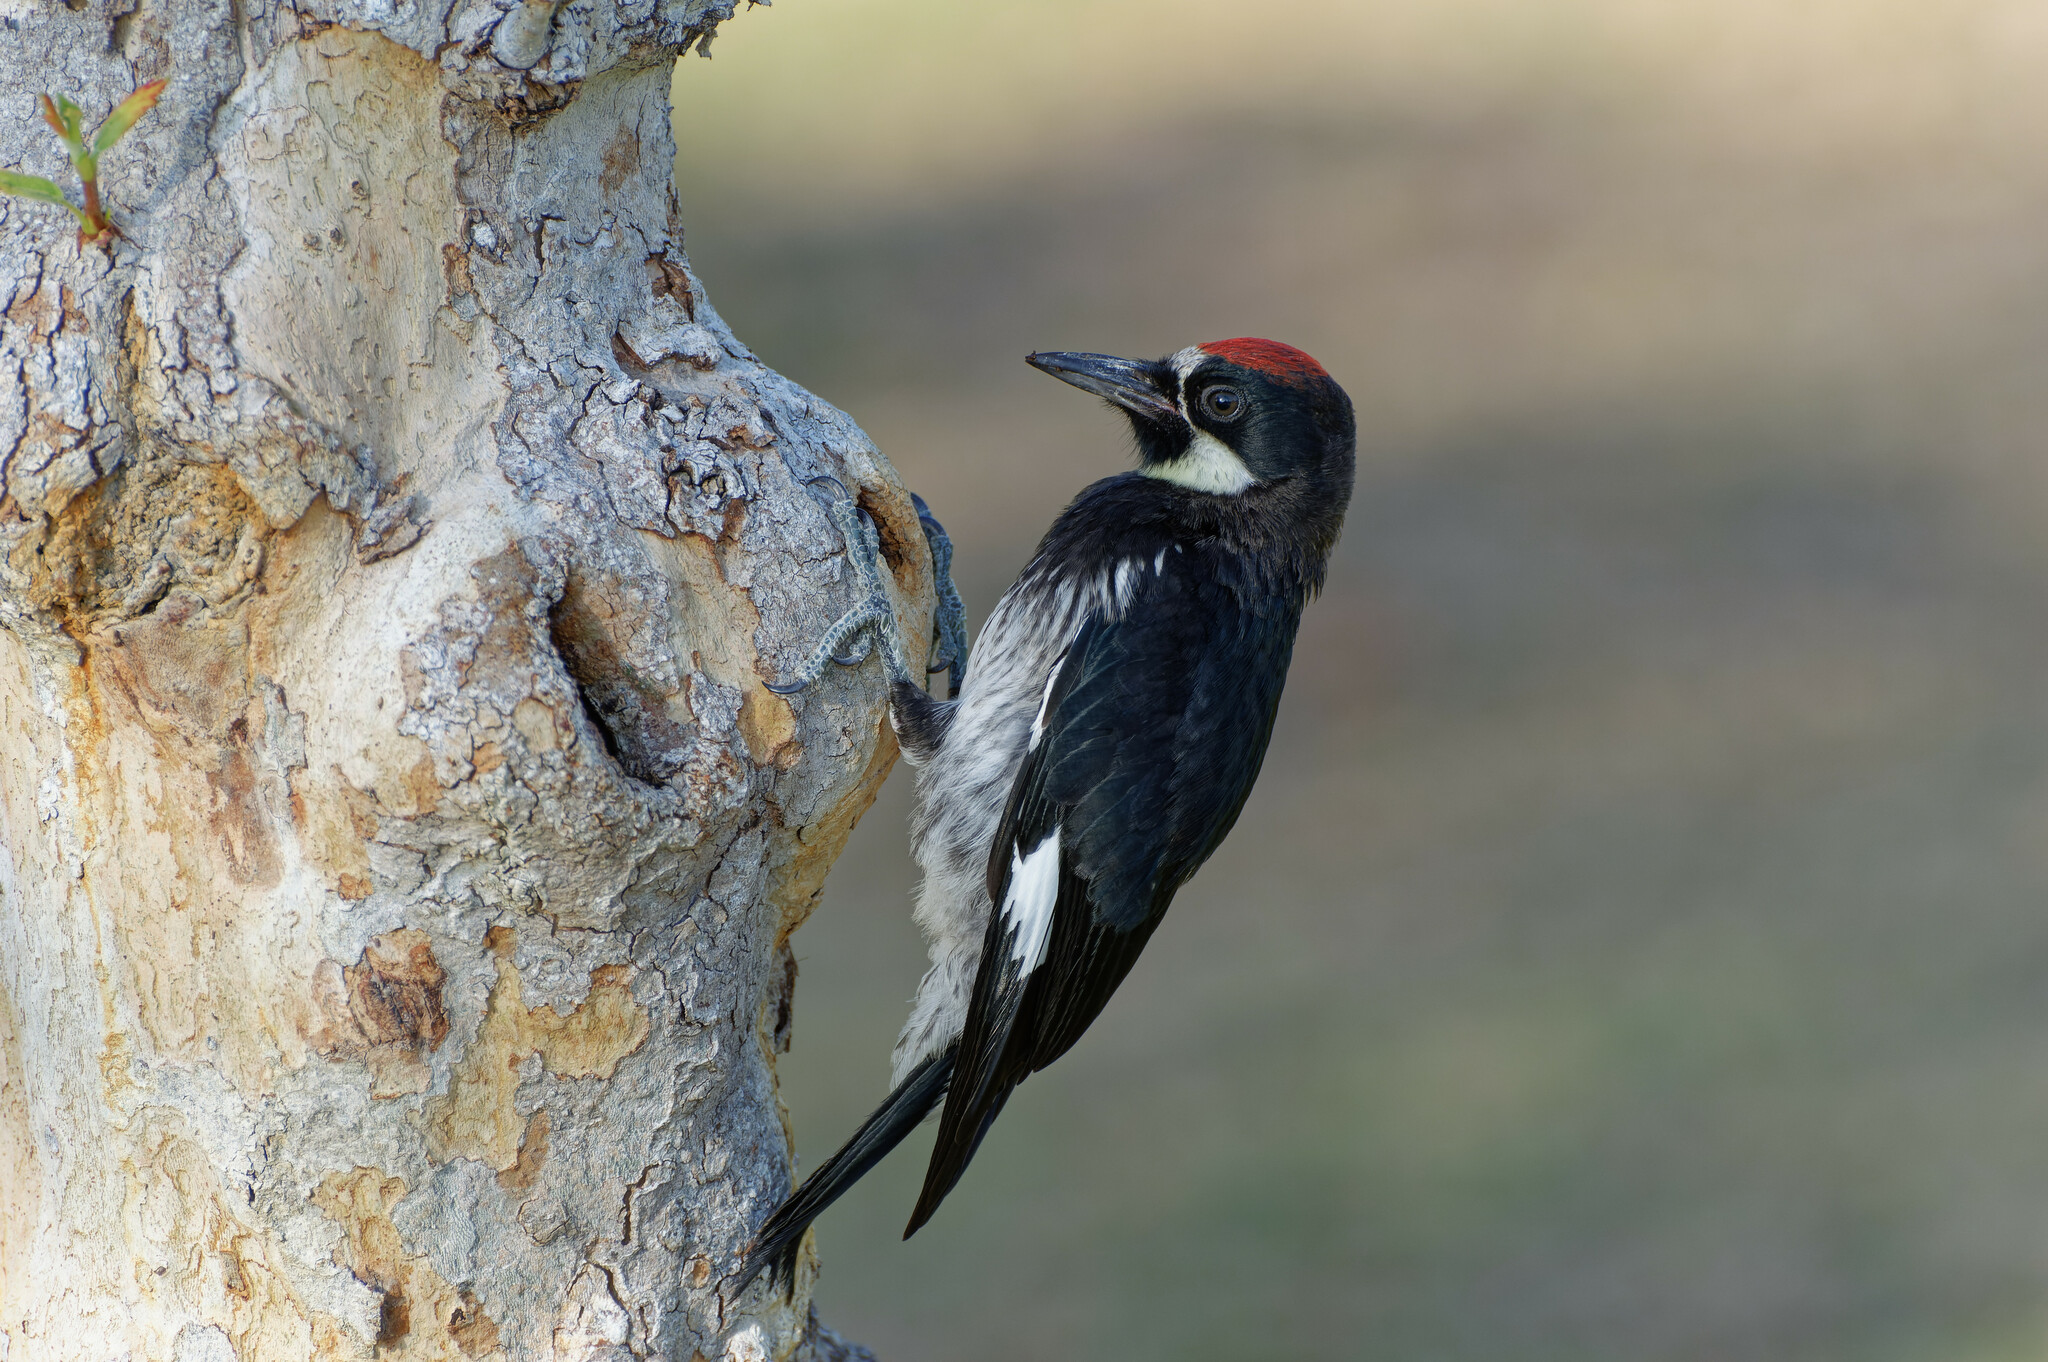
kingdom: Animalia
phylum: Chordata
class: Aves
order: Piciformes
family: Picidae
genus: Melanerpes
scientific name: Melanerpes formicivorus
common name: Acorn woodpecker
